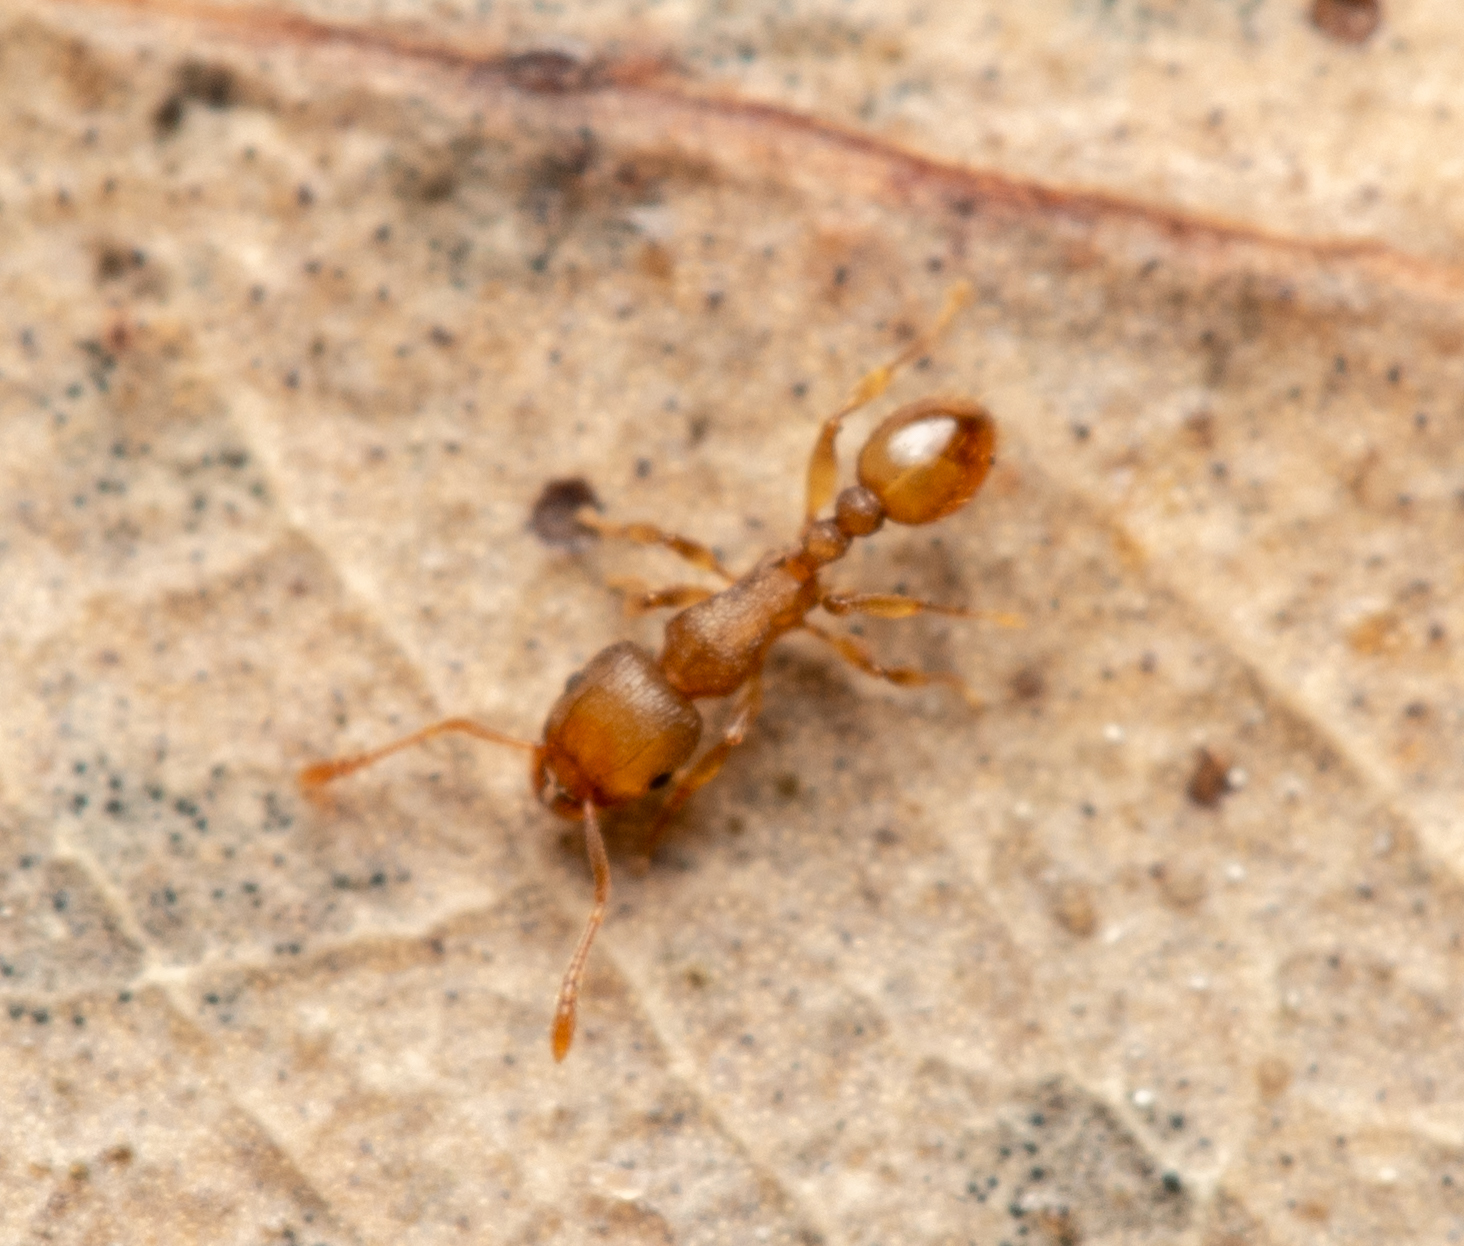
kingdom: Animalia
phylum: Arthropoda
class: Insecta
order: Hymenoptera
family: Formicidae
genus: Tetramorium
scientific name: Tetramorium simillimum
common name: Ant
